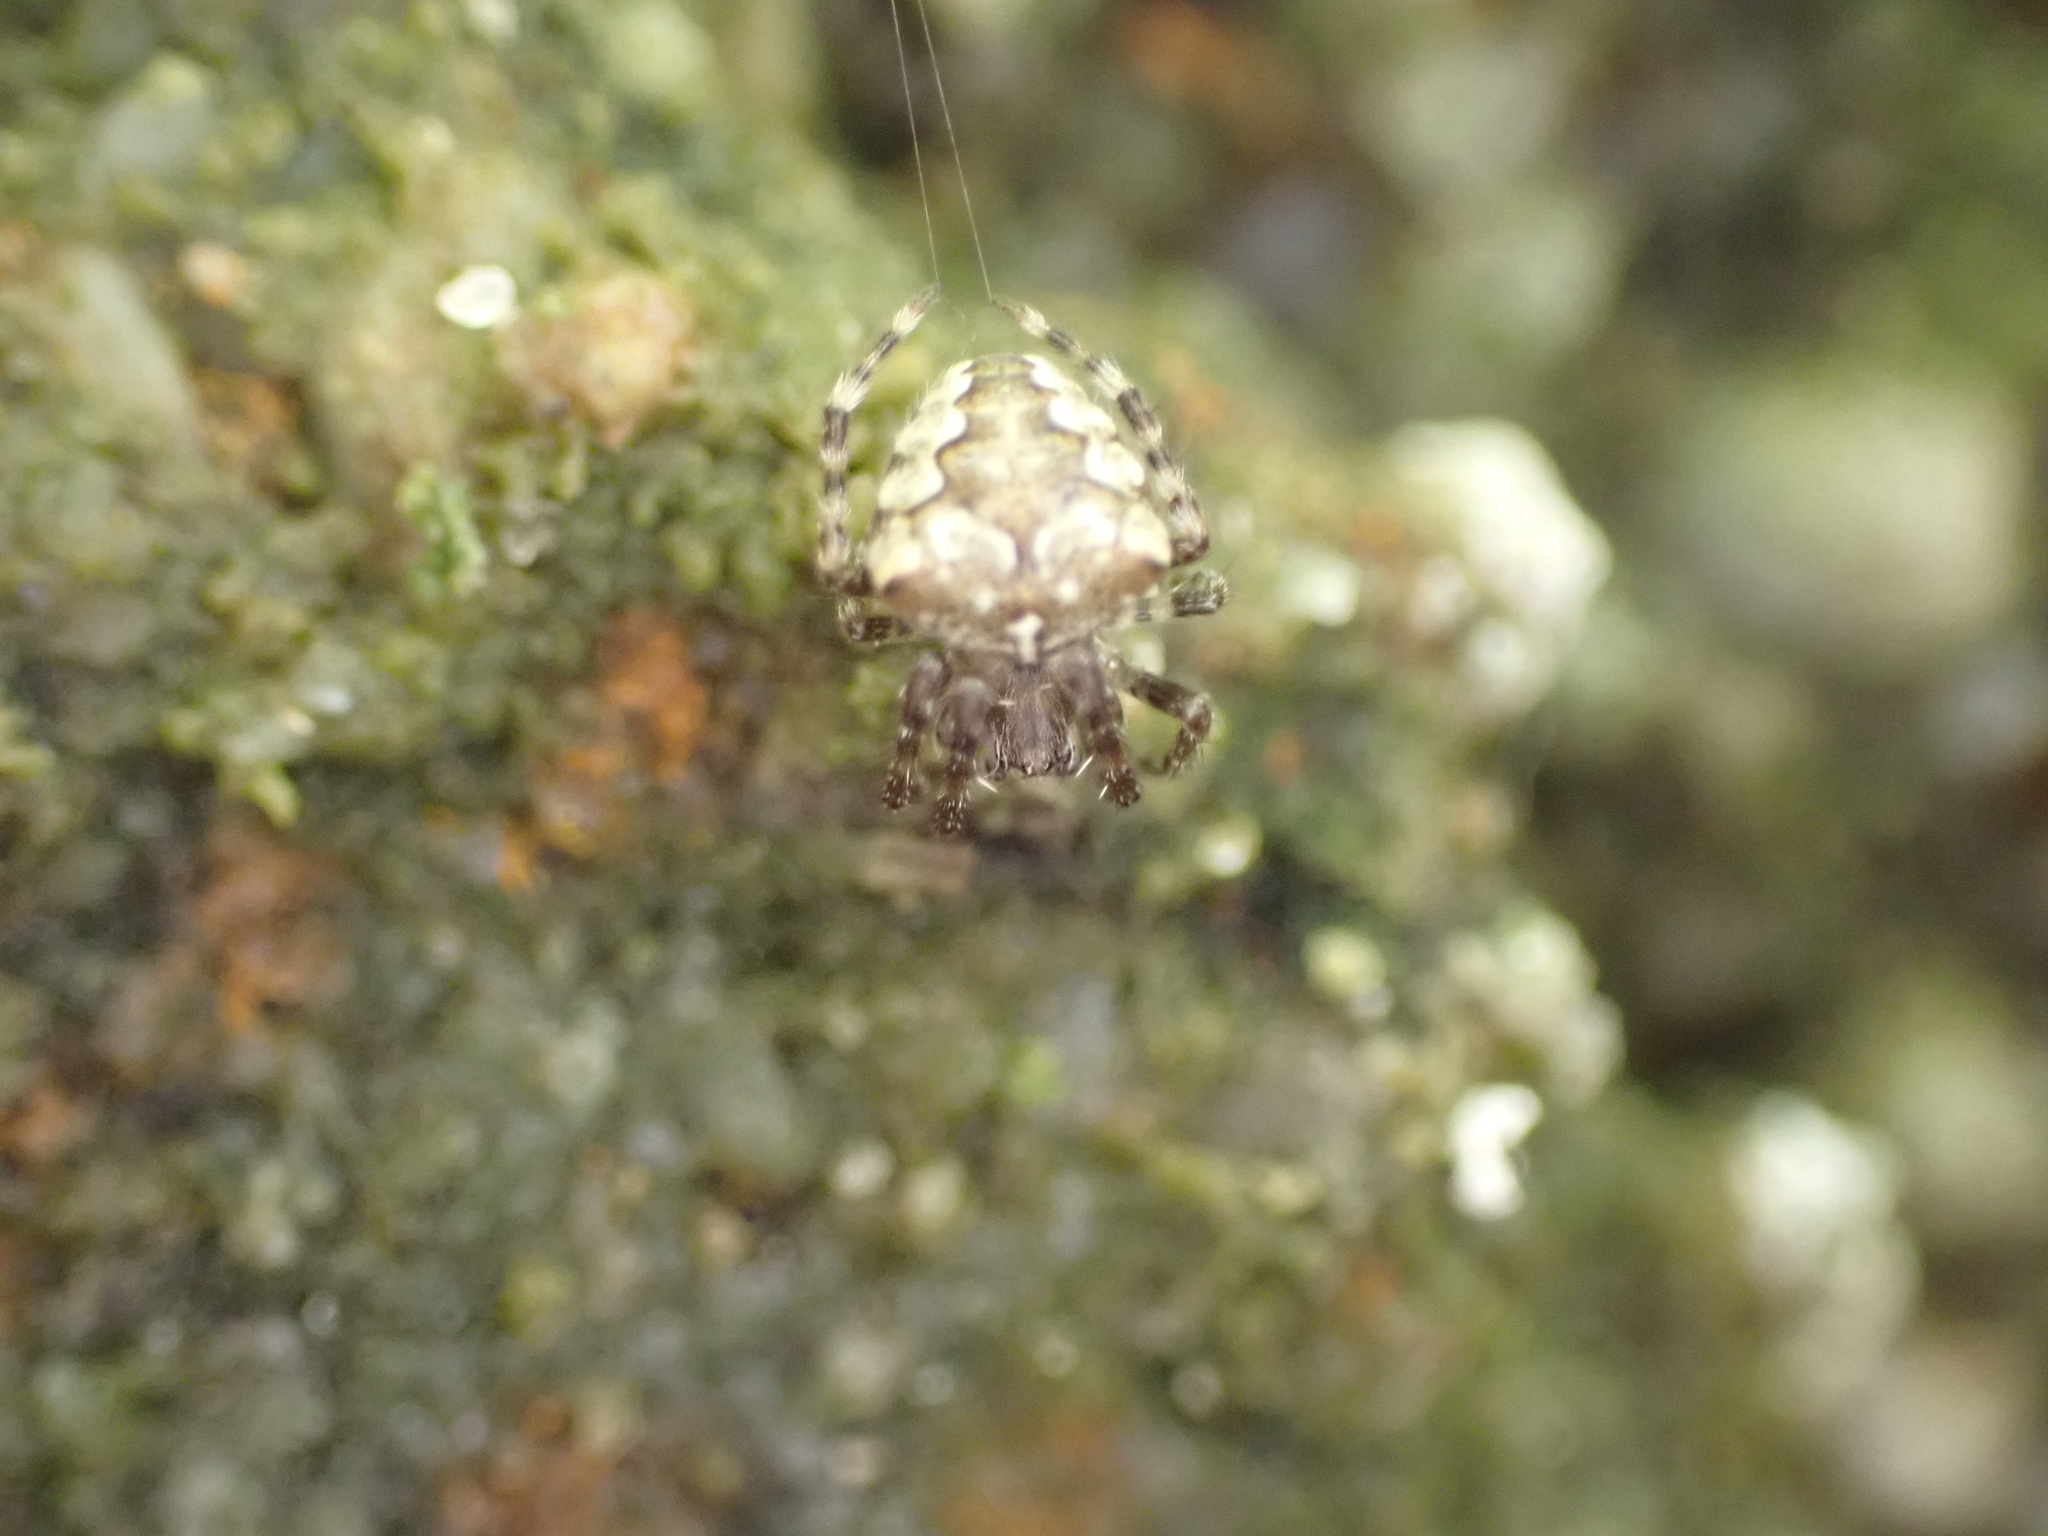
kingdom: Animalia
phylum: Arthropoda
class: Arachnida
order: Araneae
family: Araneidae
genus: Araneus
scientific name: Araneus bicentenarius
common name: Giant lichen orbweaver
